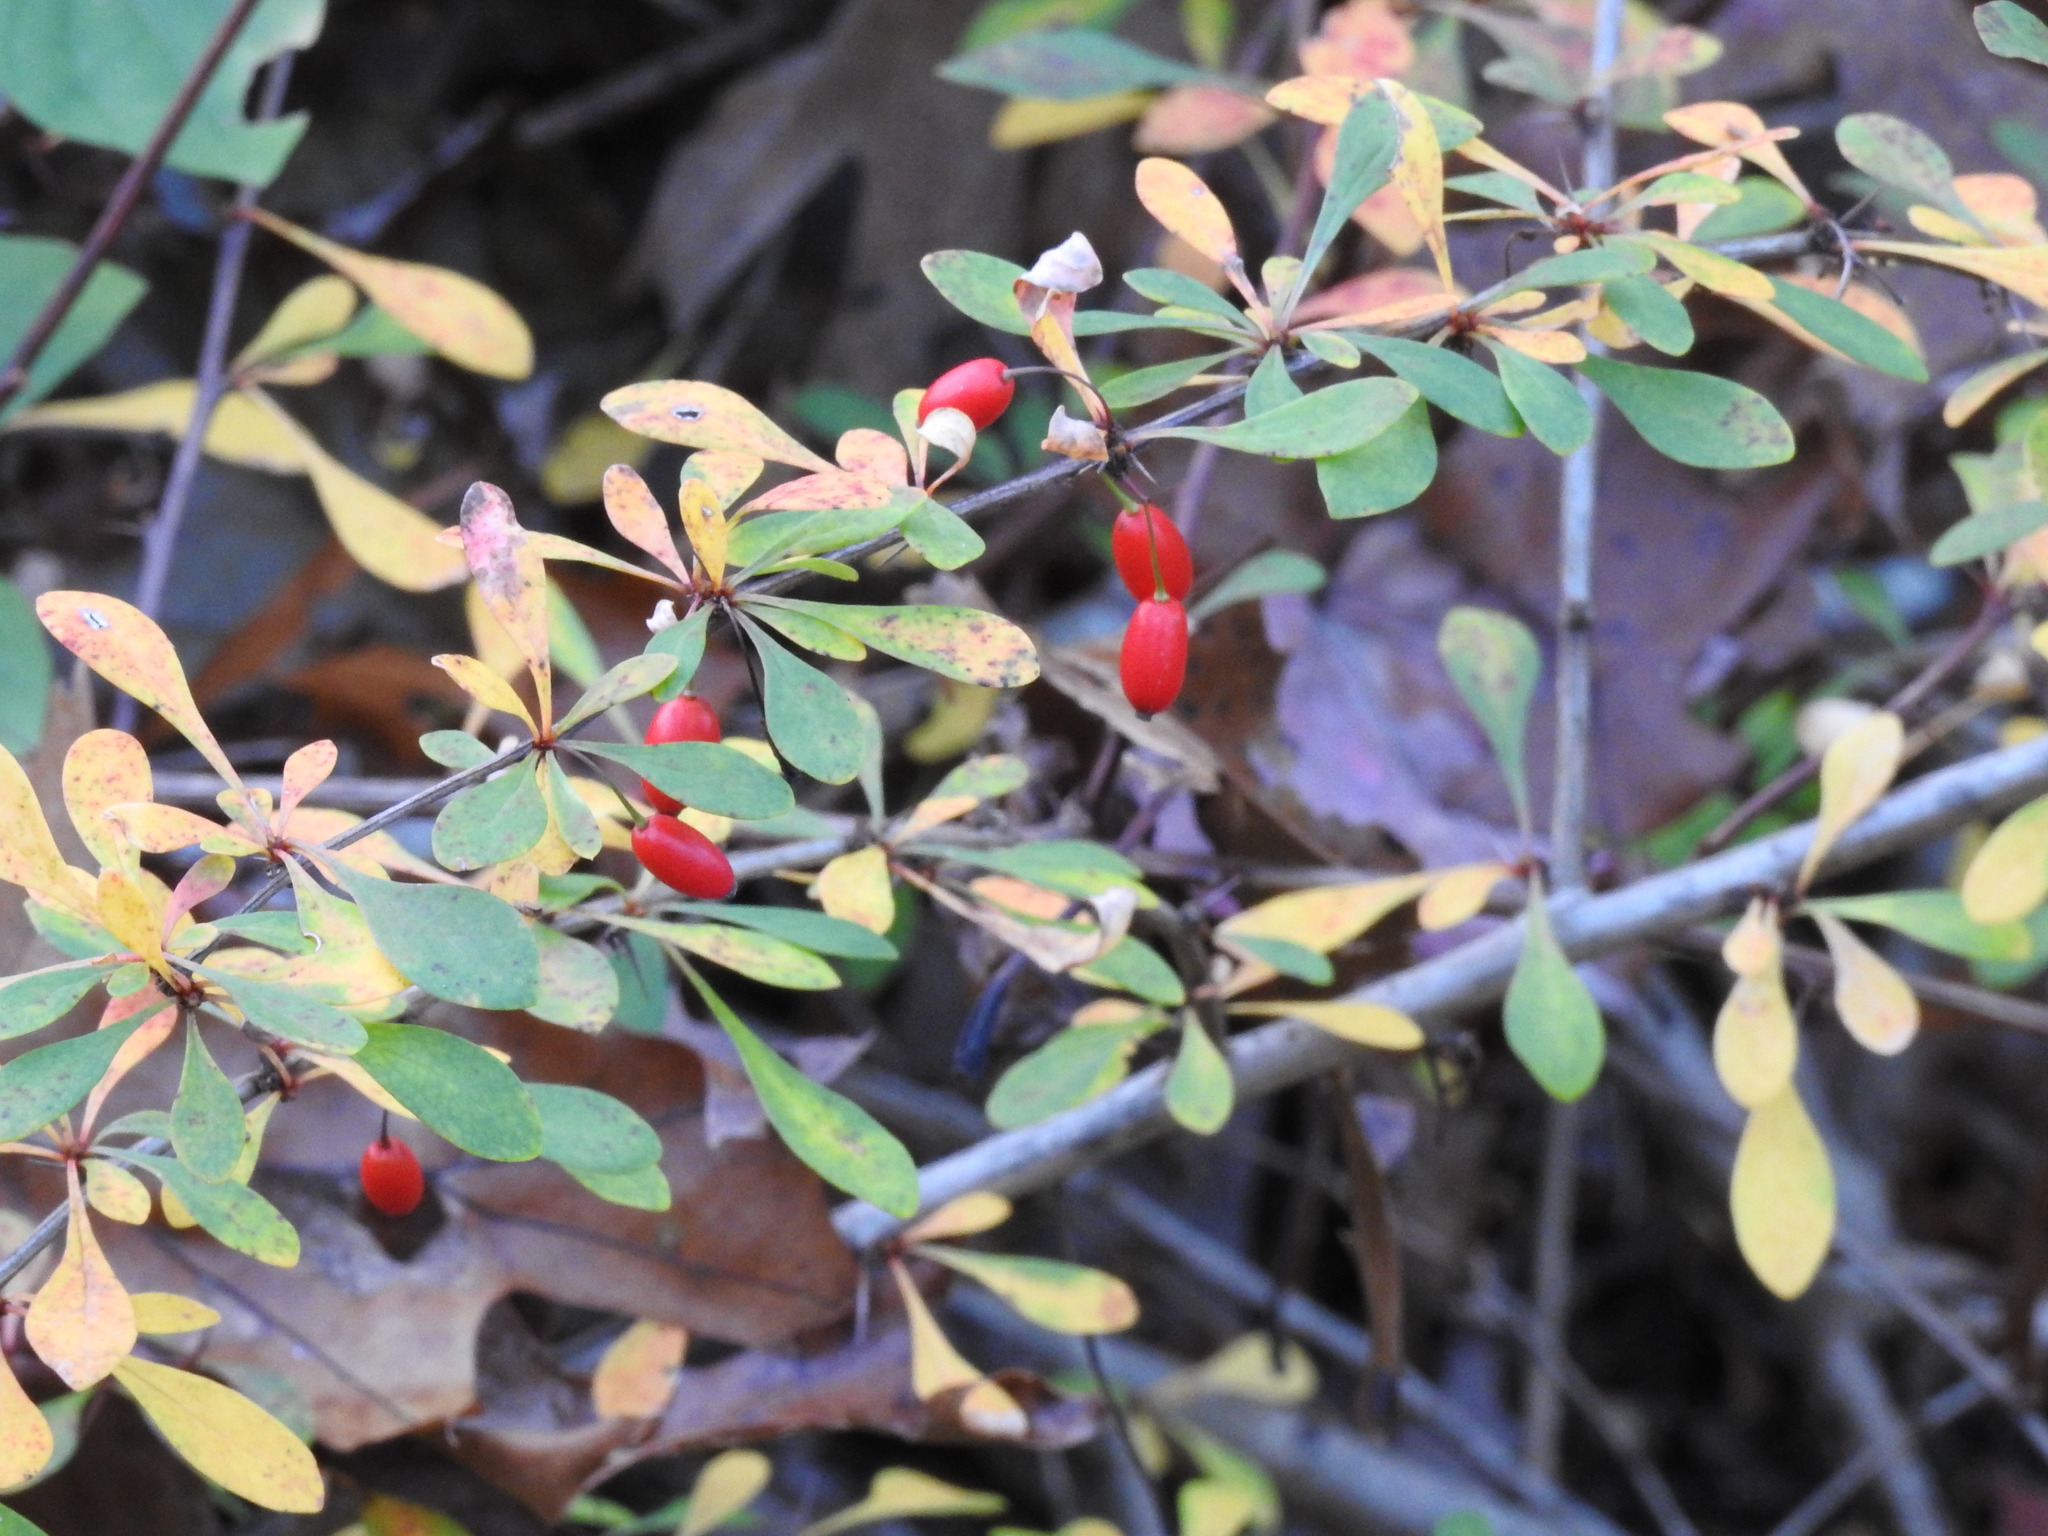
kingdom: Plantae
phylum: Tracheophyta
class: Magnoliopsida
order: Ranunculales
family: Berberidaceae
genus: Berberis
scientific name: Berberis thunbergii
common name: Japanese barberry
